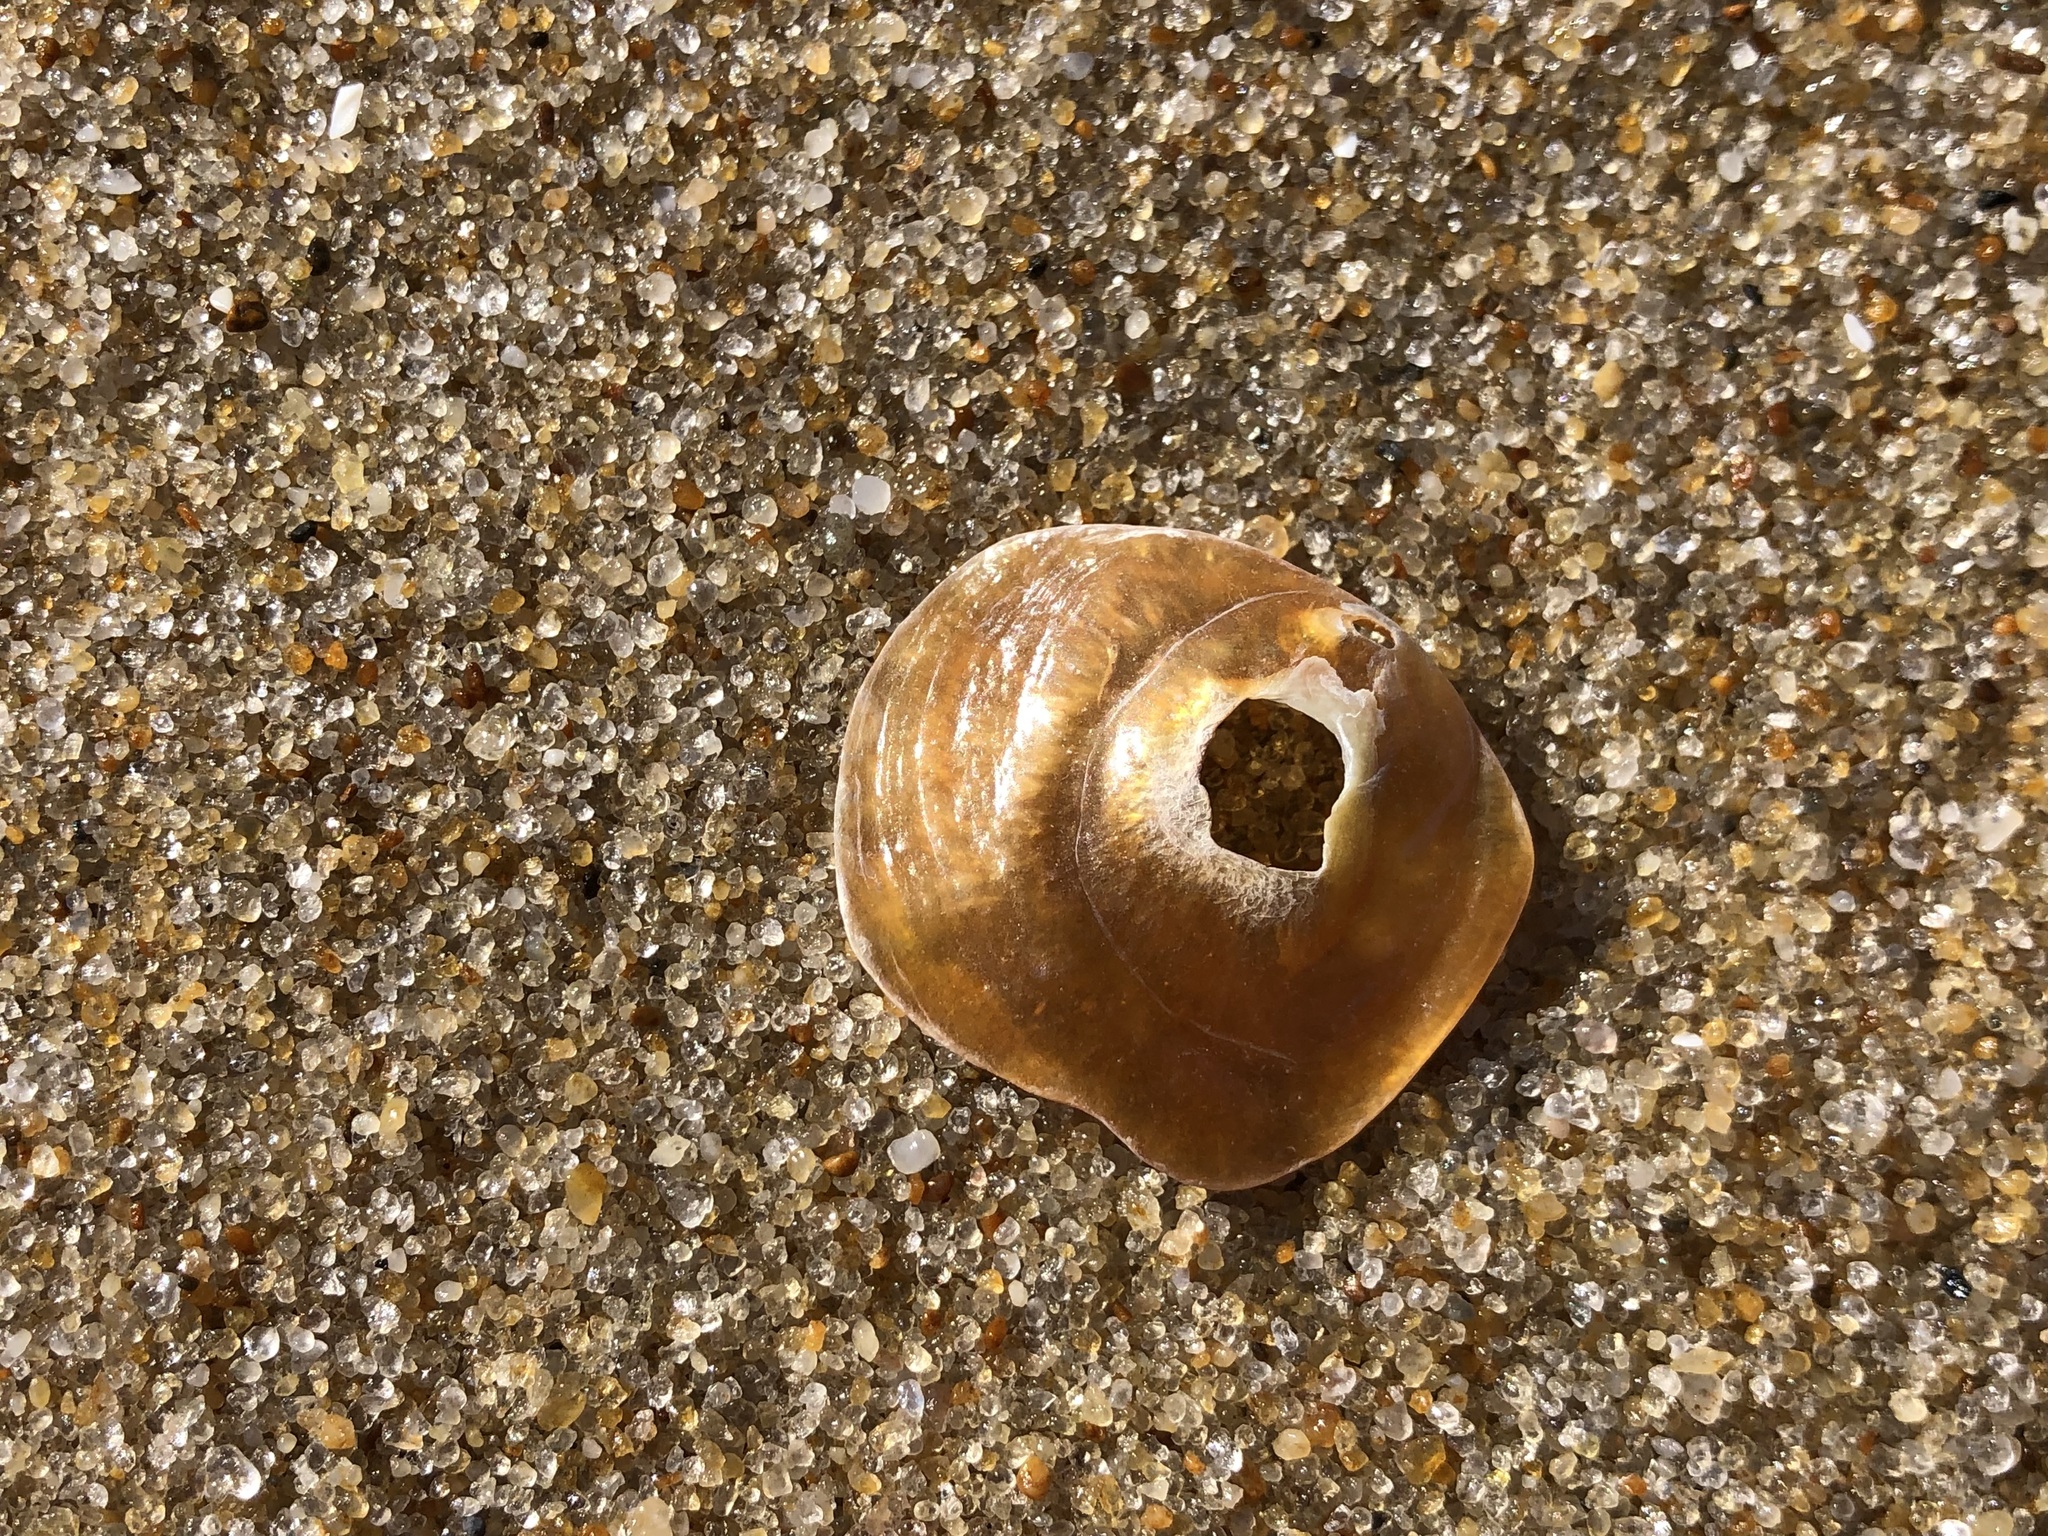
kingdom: Animalia
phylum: Mollusca
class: Bivalvia
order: Pectinida
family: Anomiidae
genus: Anomia
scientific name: Anomia simplex
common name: Common jingle shell
